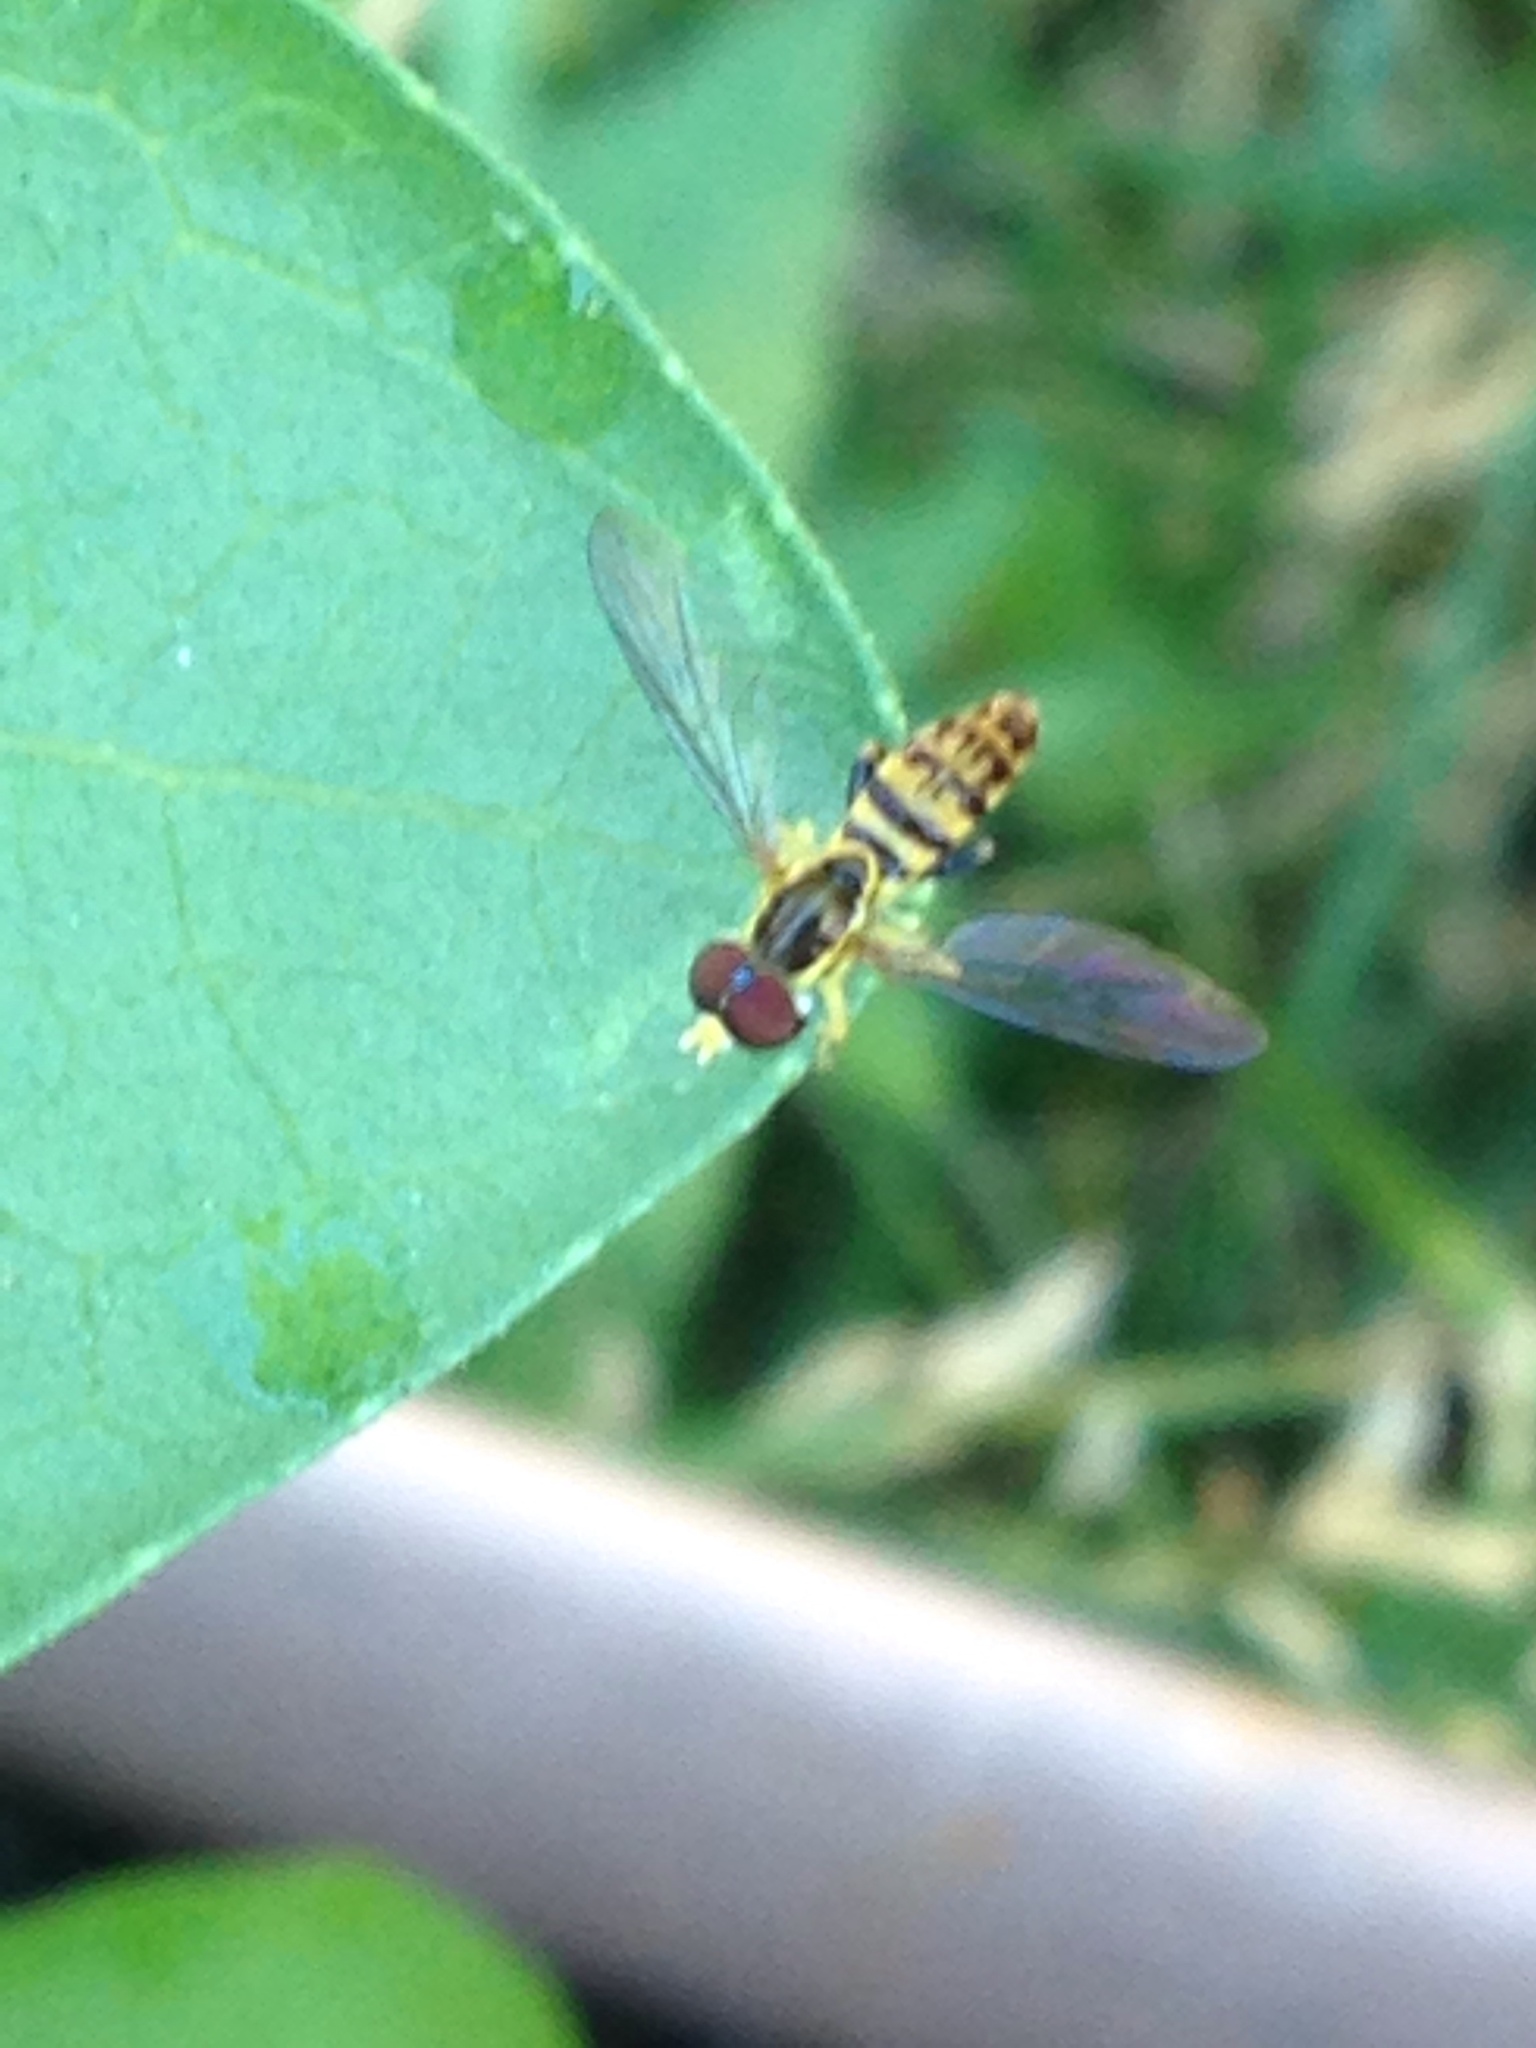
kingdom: Animalia
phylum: Arthropoda
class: Insecta
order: Diptera
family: Syrphidae
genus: Toxomerus
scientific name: Toxomerus geminatus
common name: Eastern calligrapher
